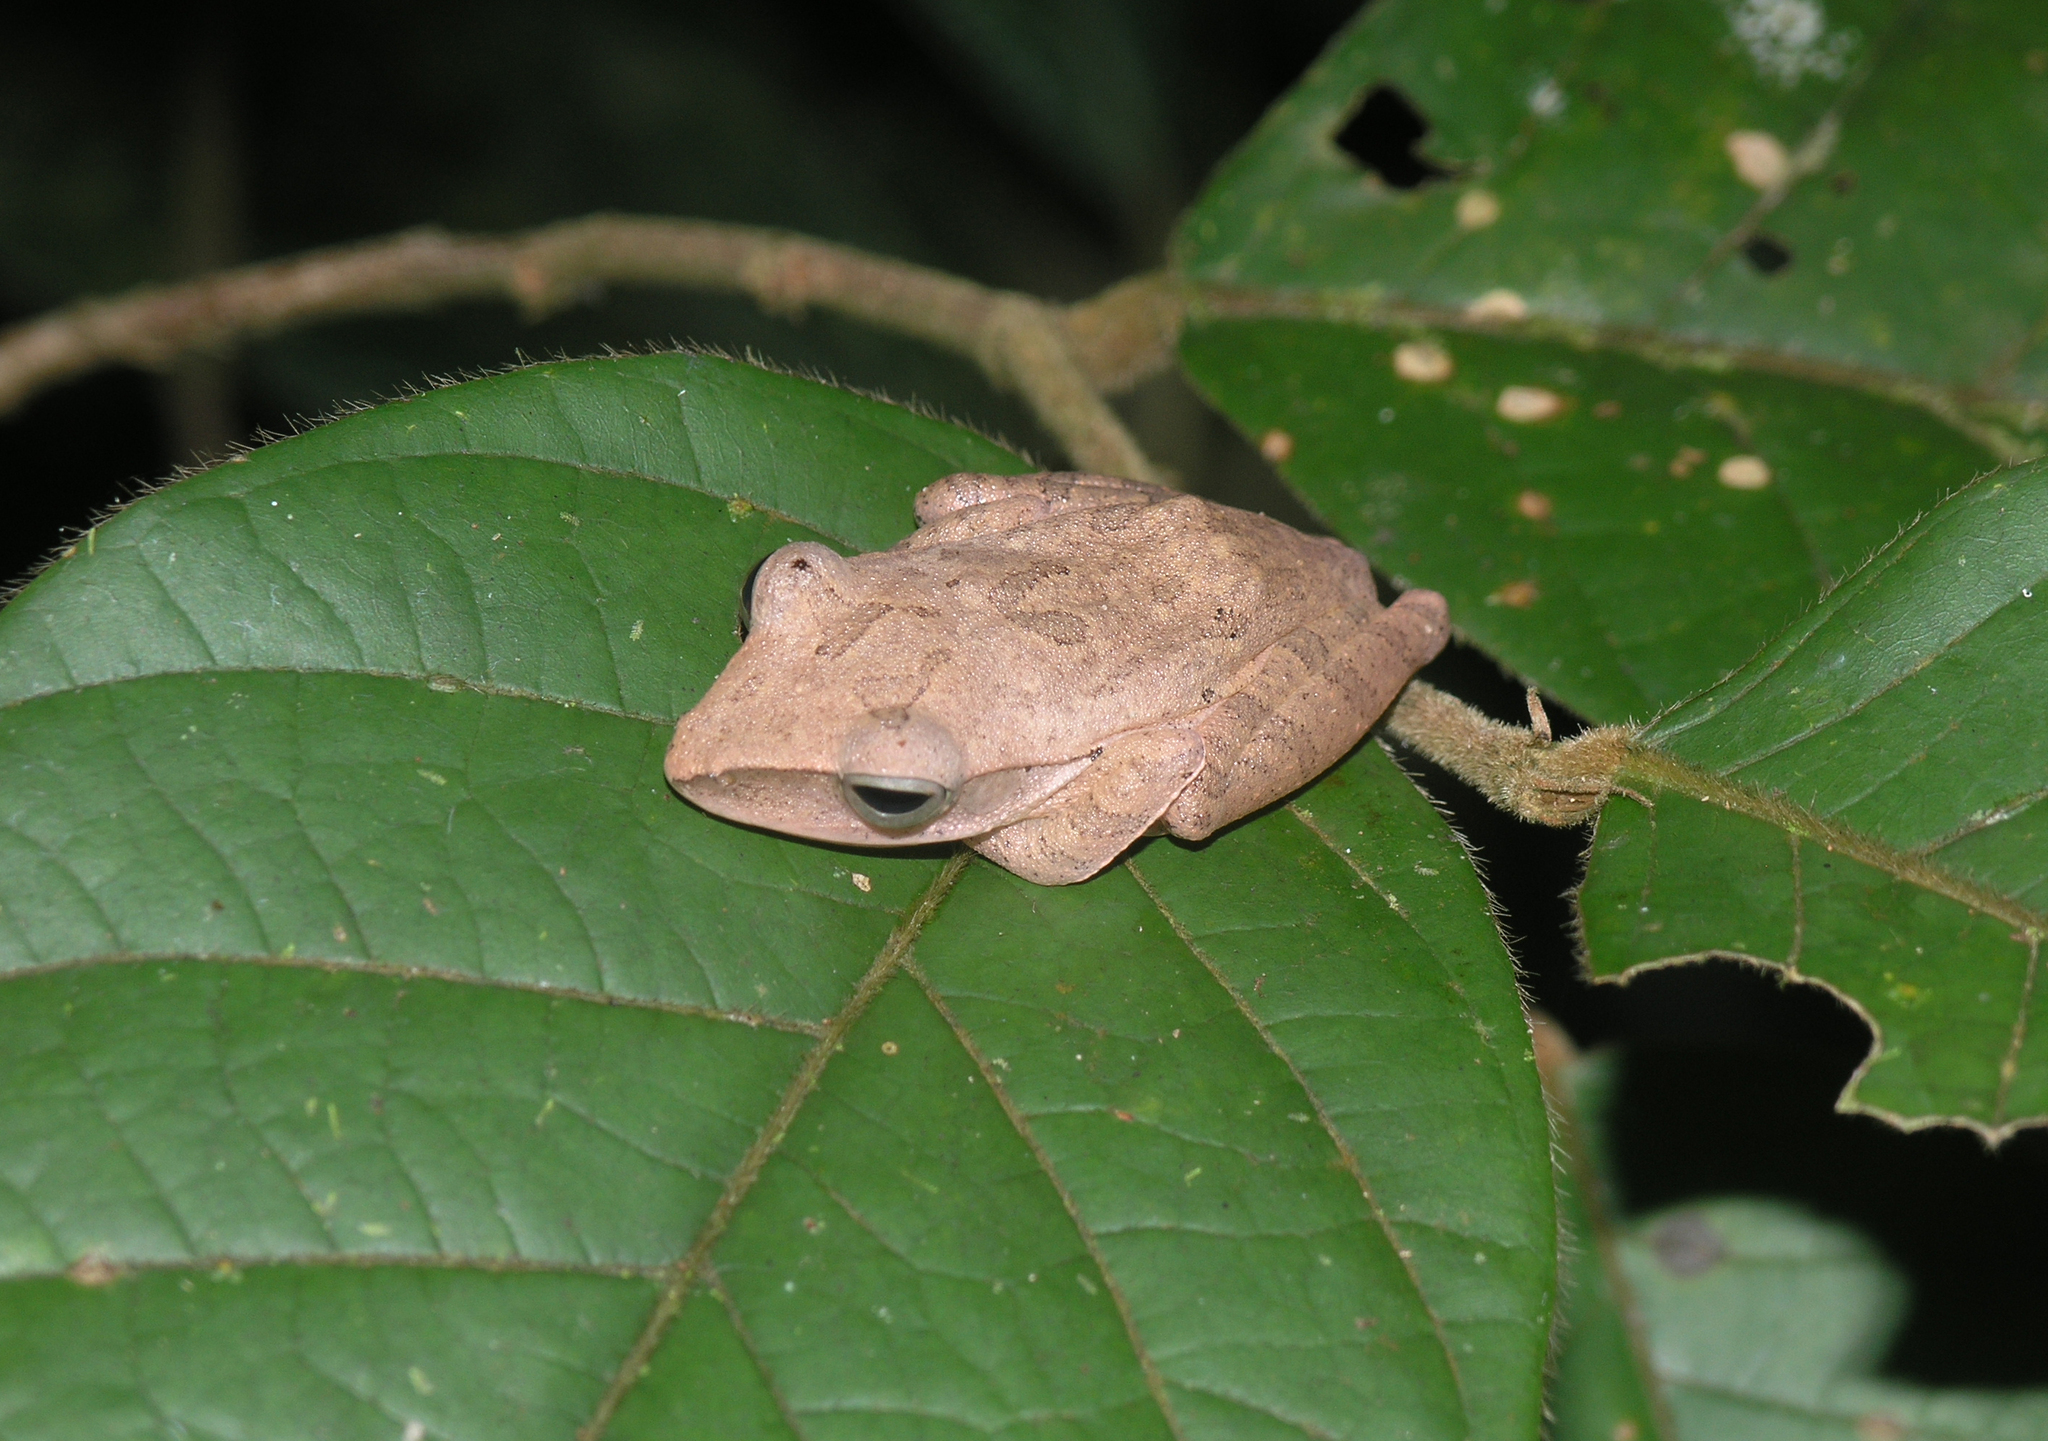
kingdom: Animalia
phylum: Chordata
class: Amphibia
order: Anura
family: Rhacophoridae
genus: Polypedates
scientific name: Polypedates megacephalus
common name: Hong kong whipping frog
